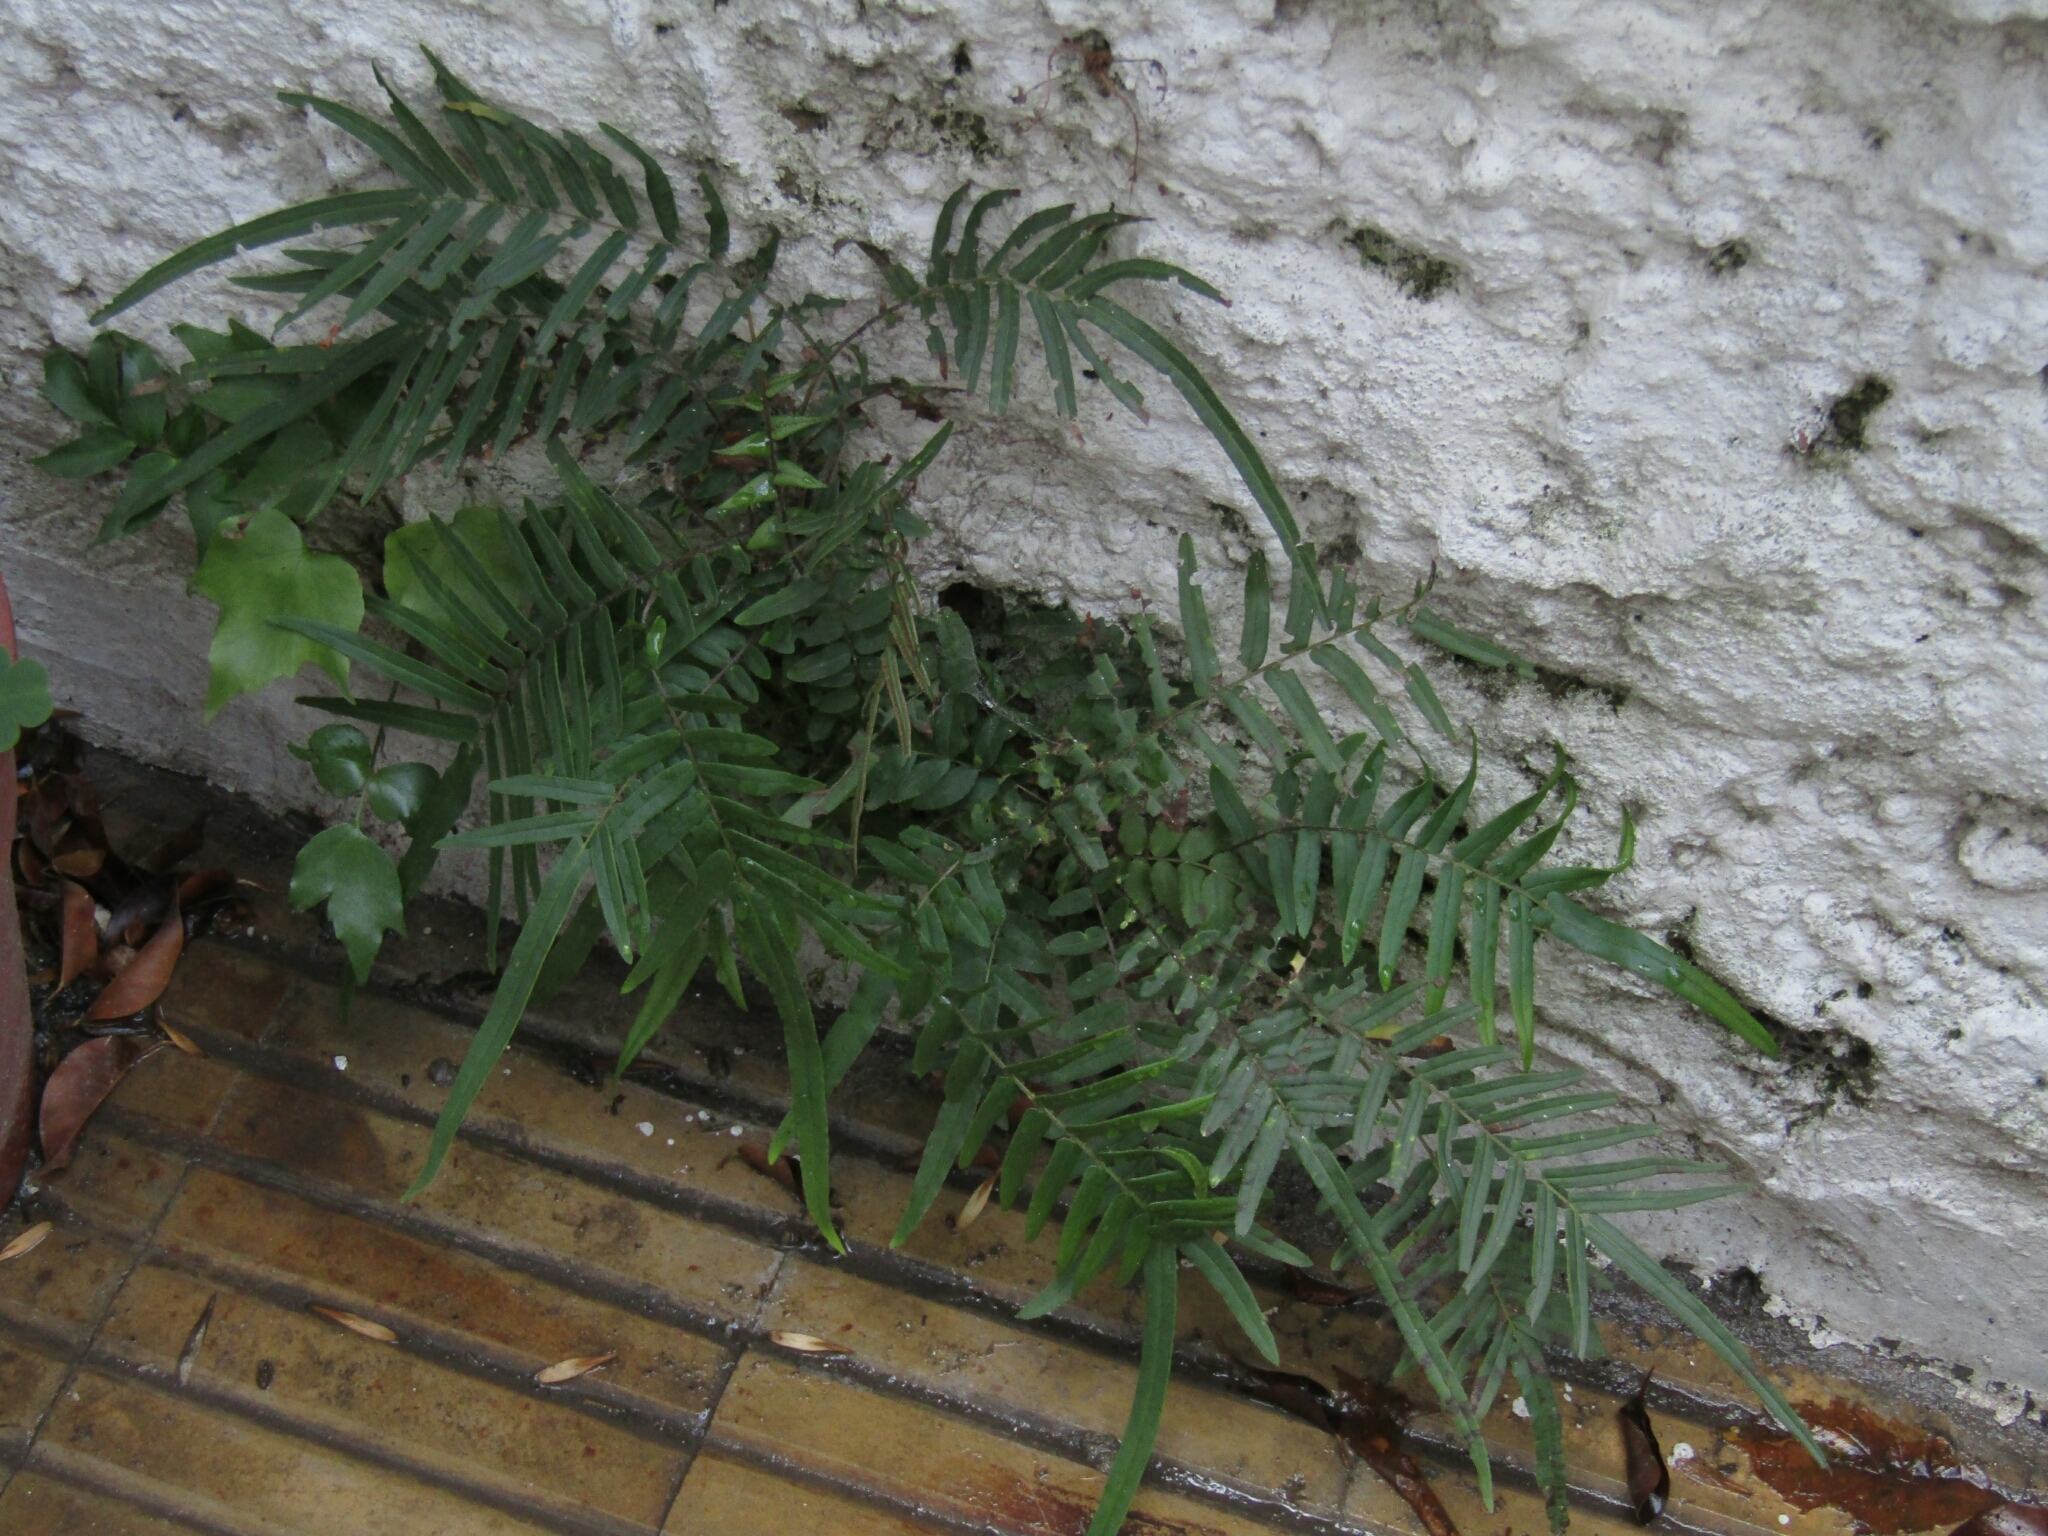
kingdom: Plantae
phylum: Tracheophyta
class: Polypodiopsida
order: Polypodiales
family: Pteridaceae
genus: Pteris
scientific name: Pteris vittata
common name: Ladder brake
